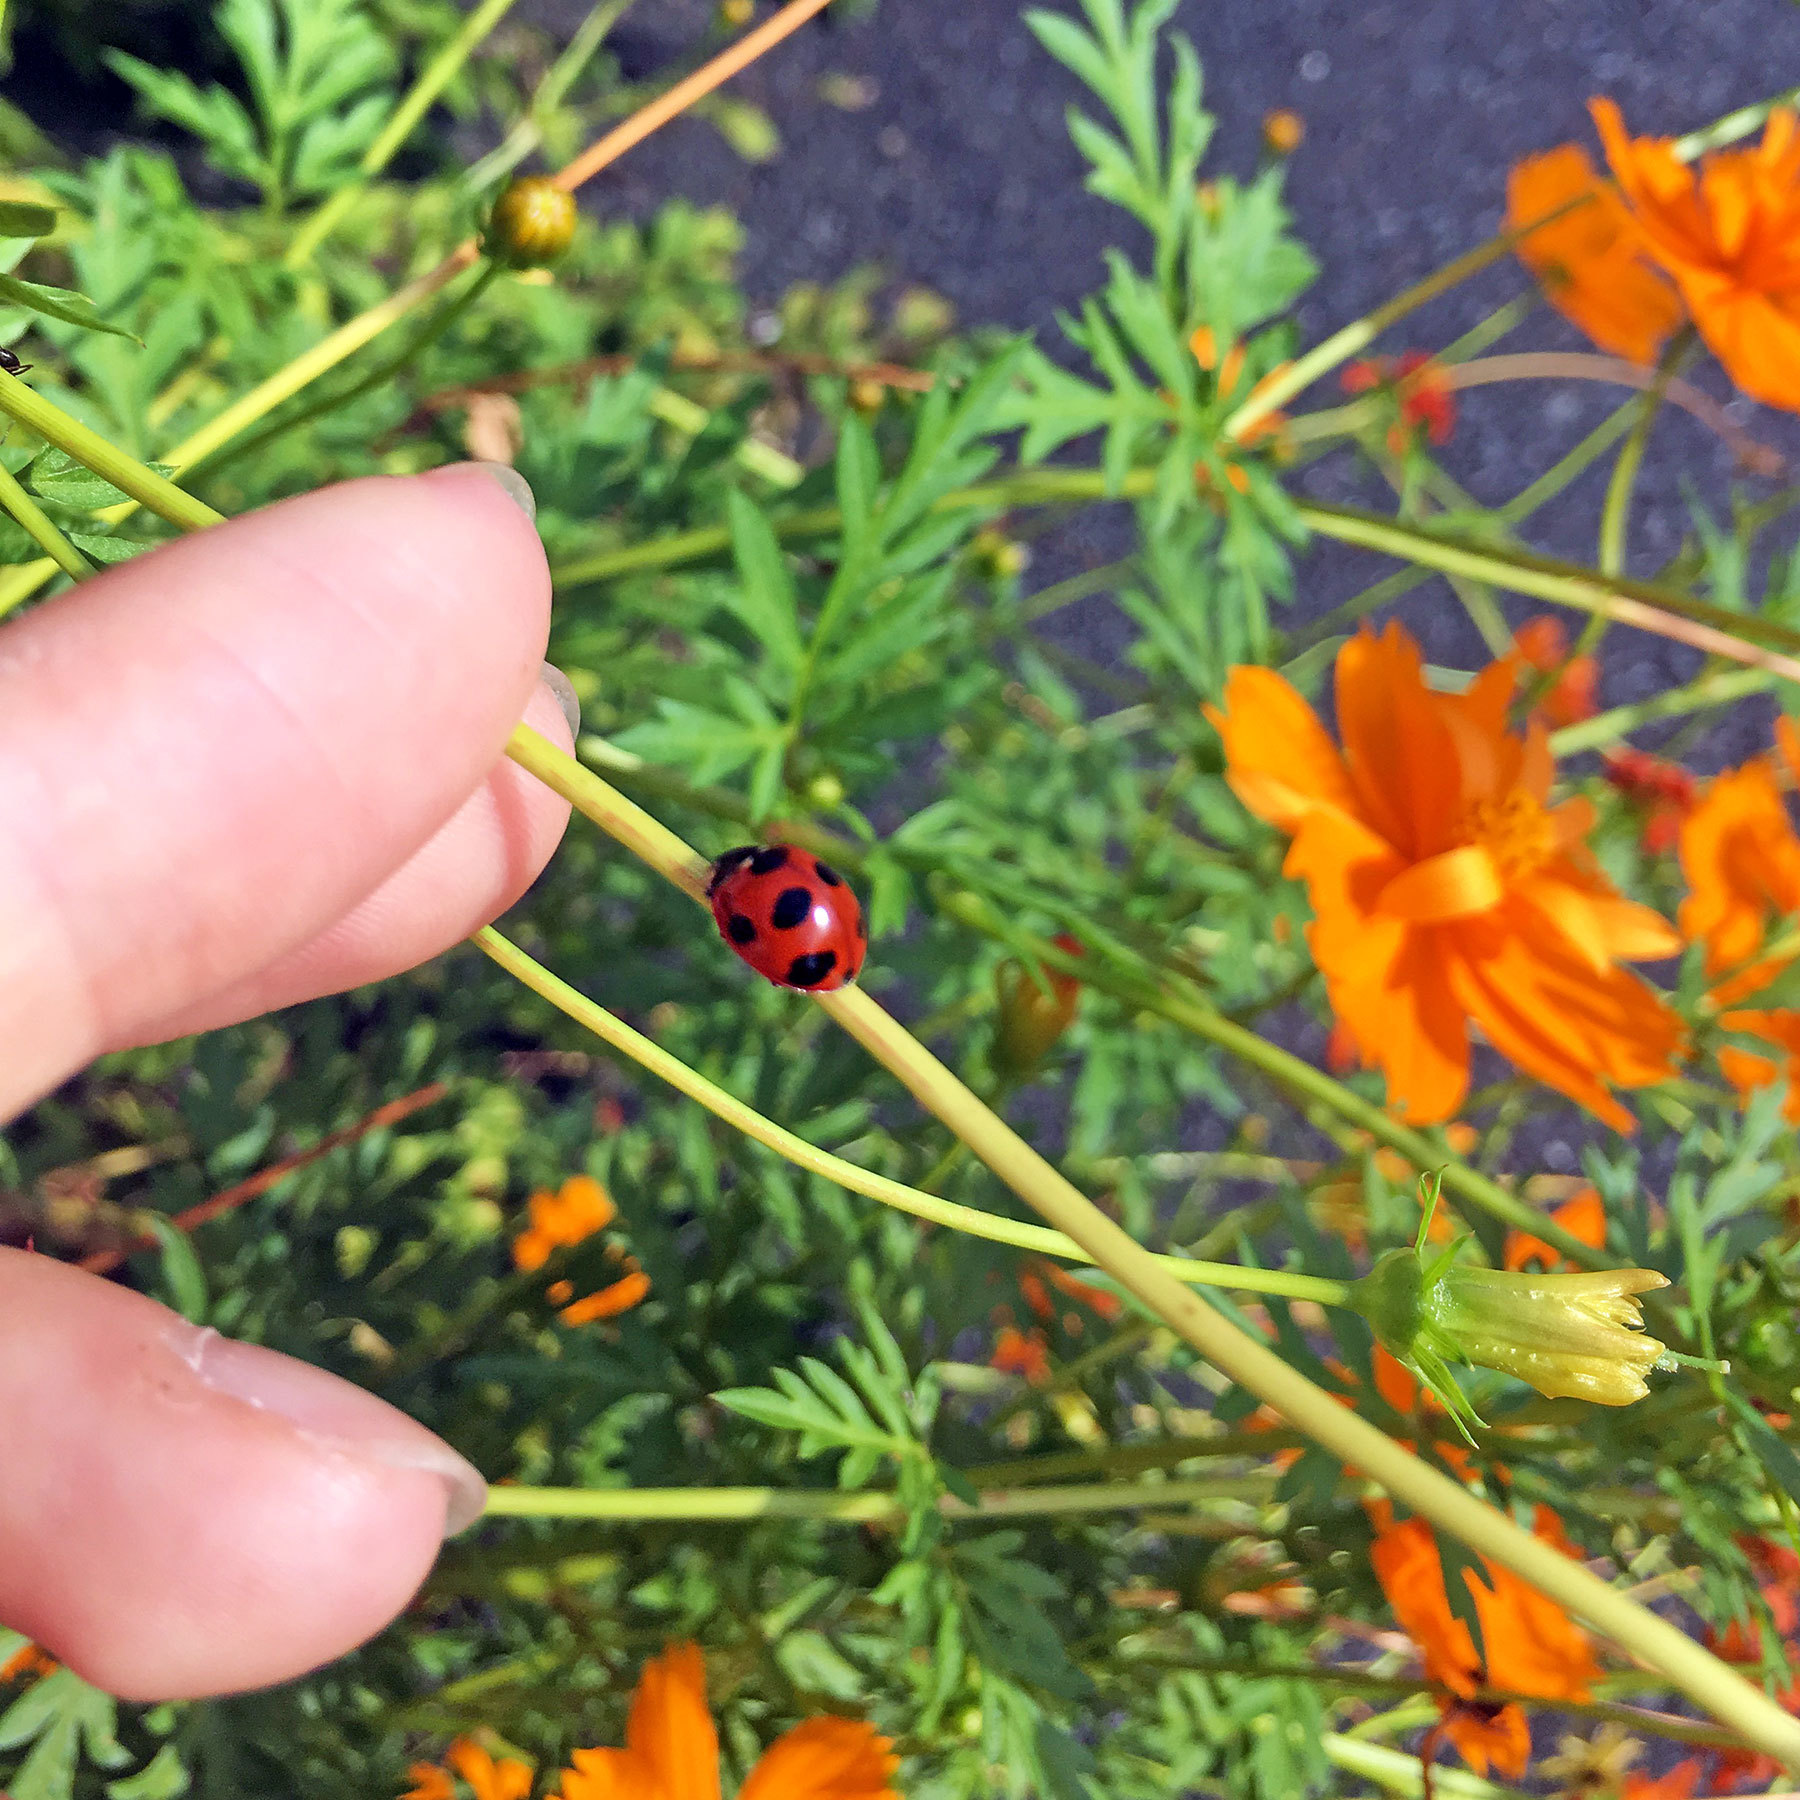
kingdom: Animalia
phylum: Arthropoda
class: Insecta
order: Coleoptera
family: Coccinellidae
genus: Coccinella
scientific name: Coccinella septempunctata
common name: Sevenspotted lady beetle
